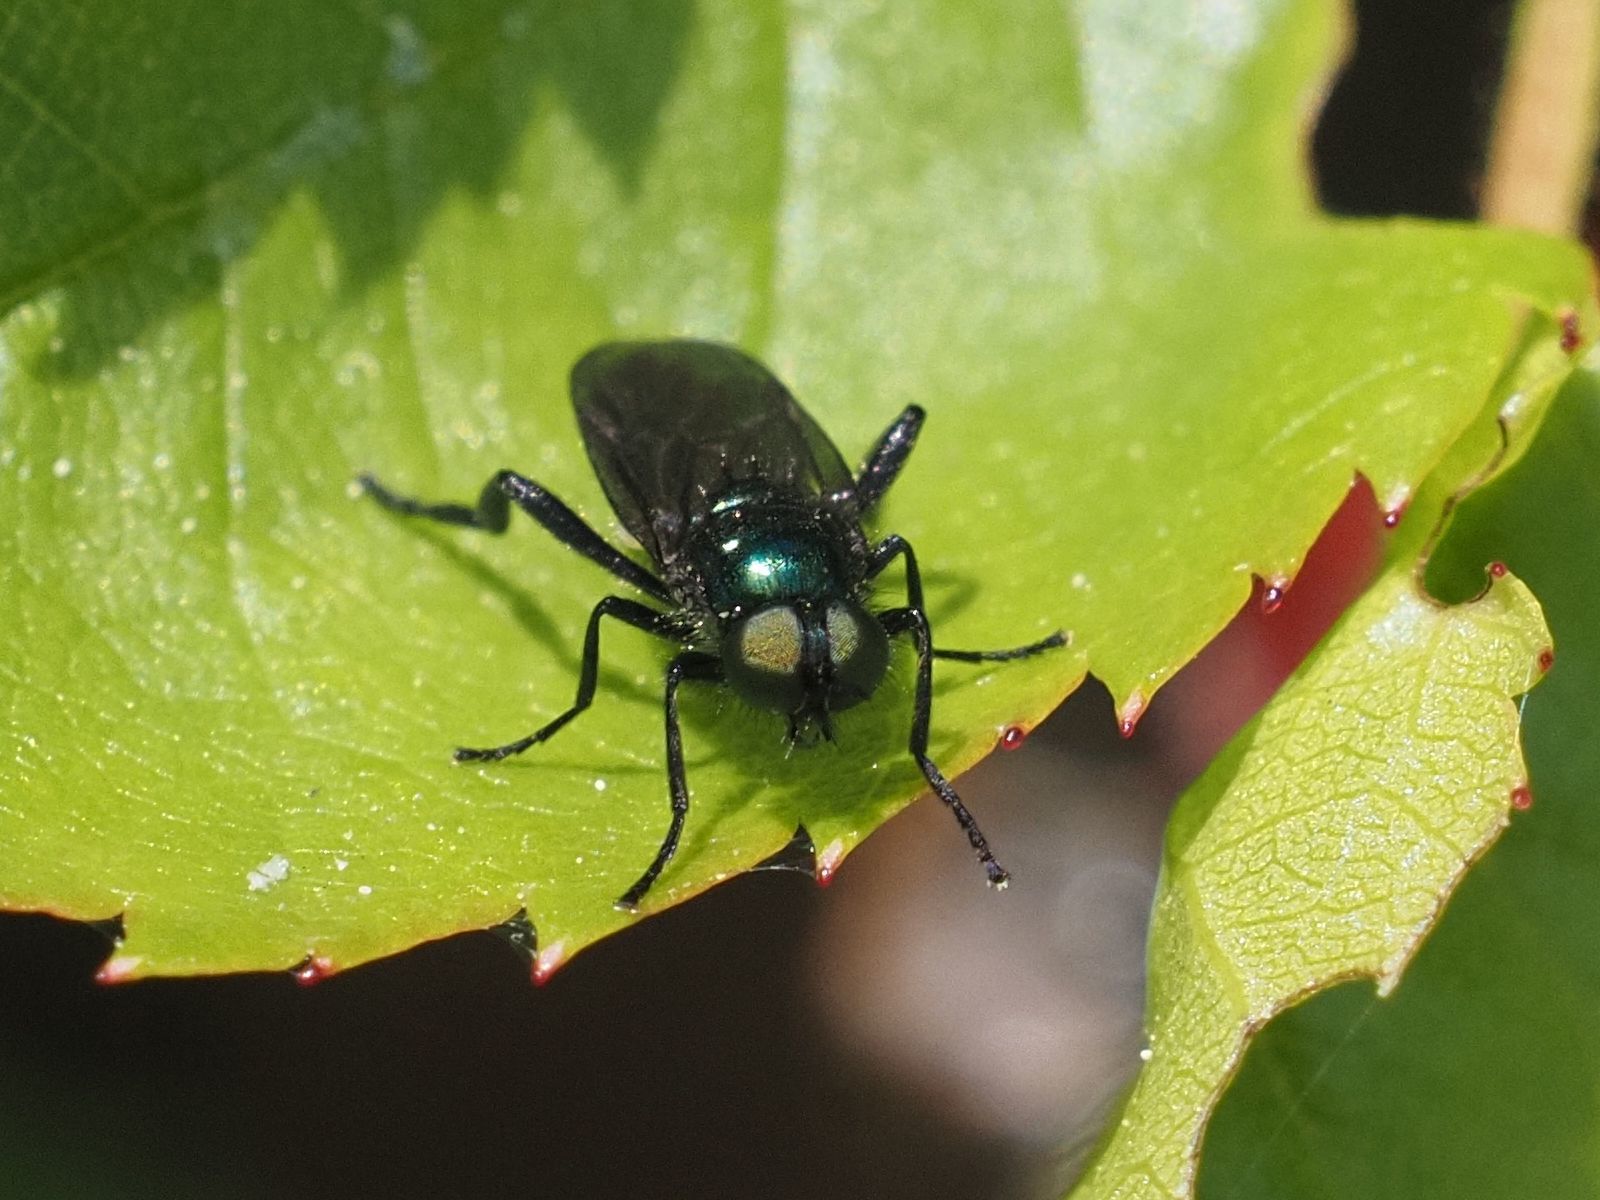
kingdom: Animalia
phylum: Arthropoda
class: Insecta
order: Diptera
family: Stratiomyidae
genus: Actina
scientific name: Actina chalybea
